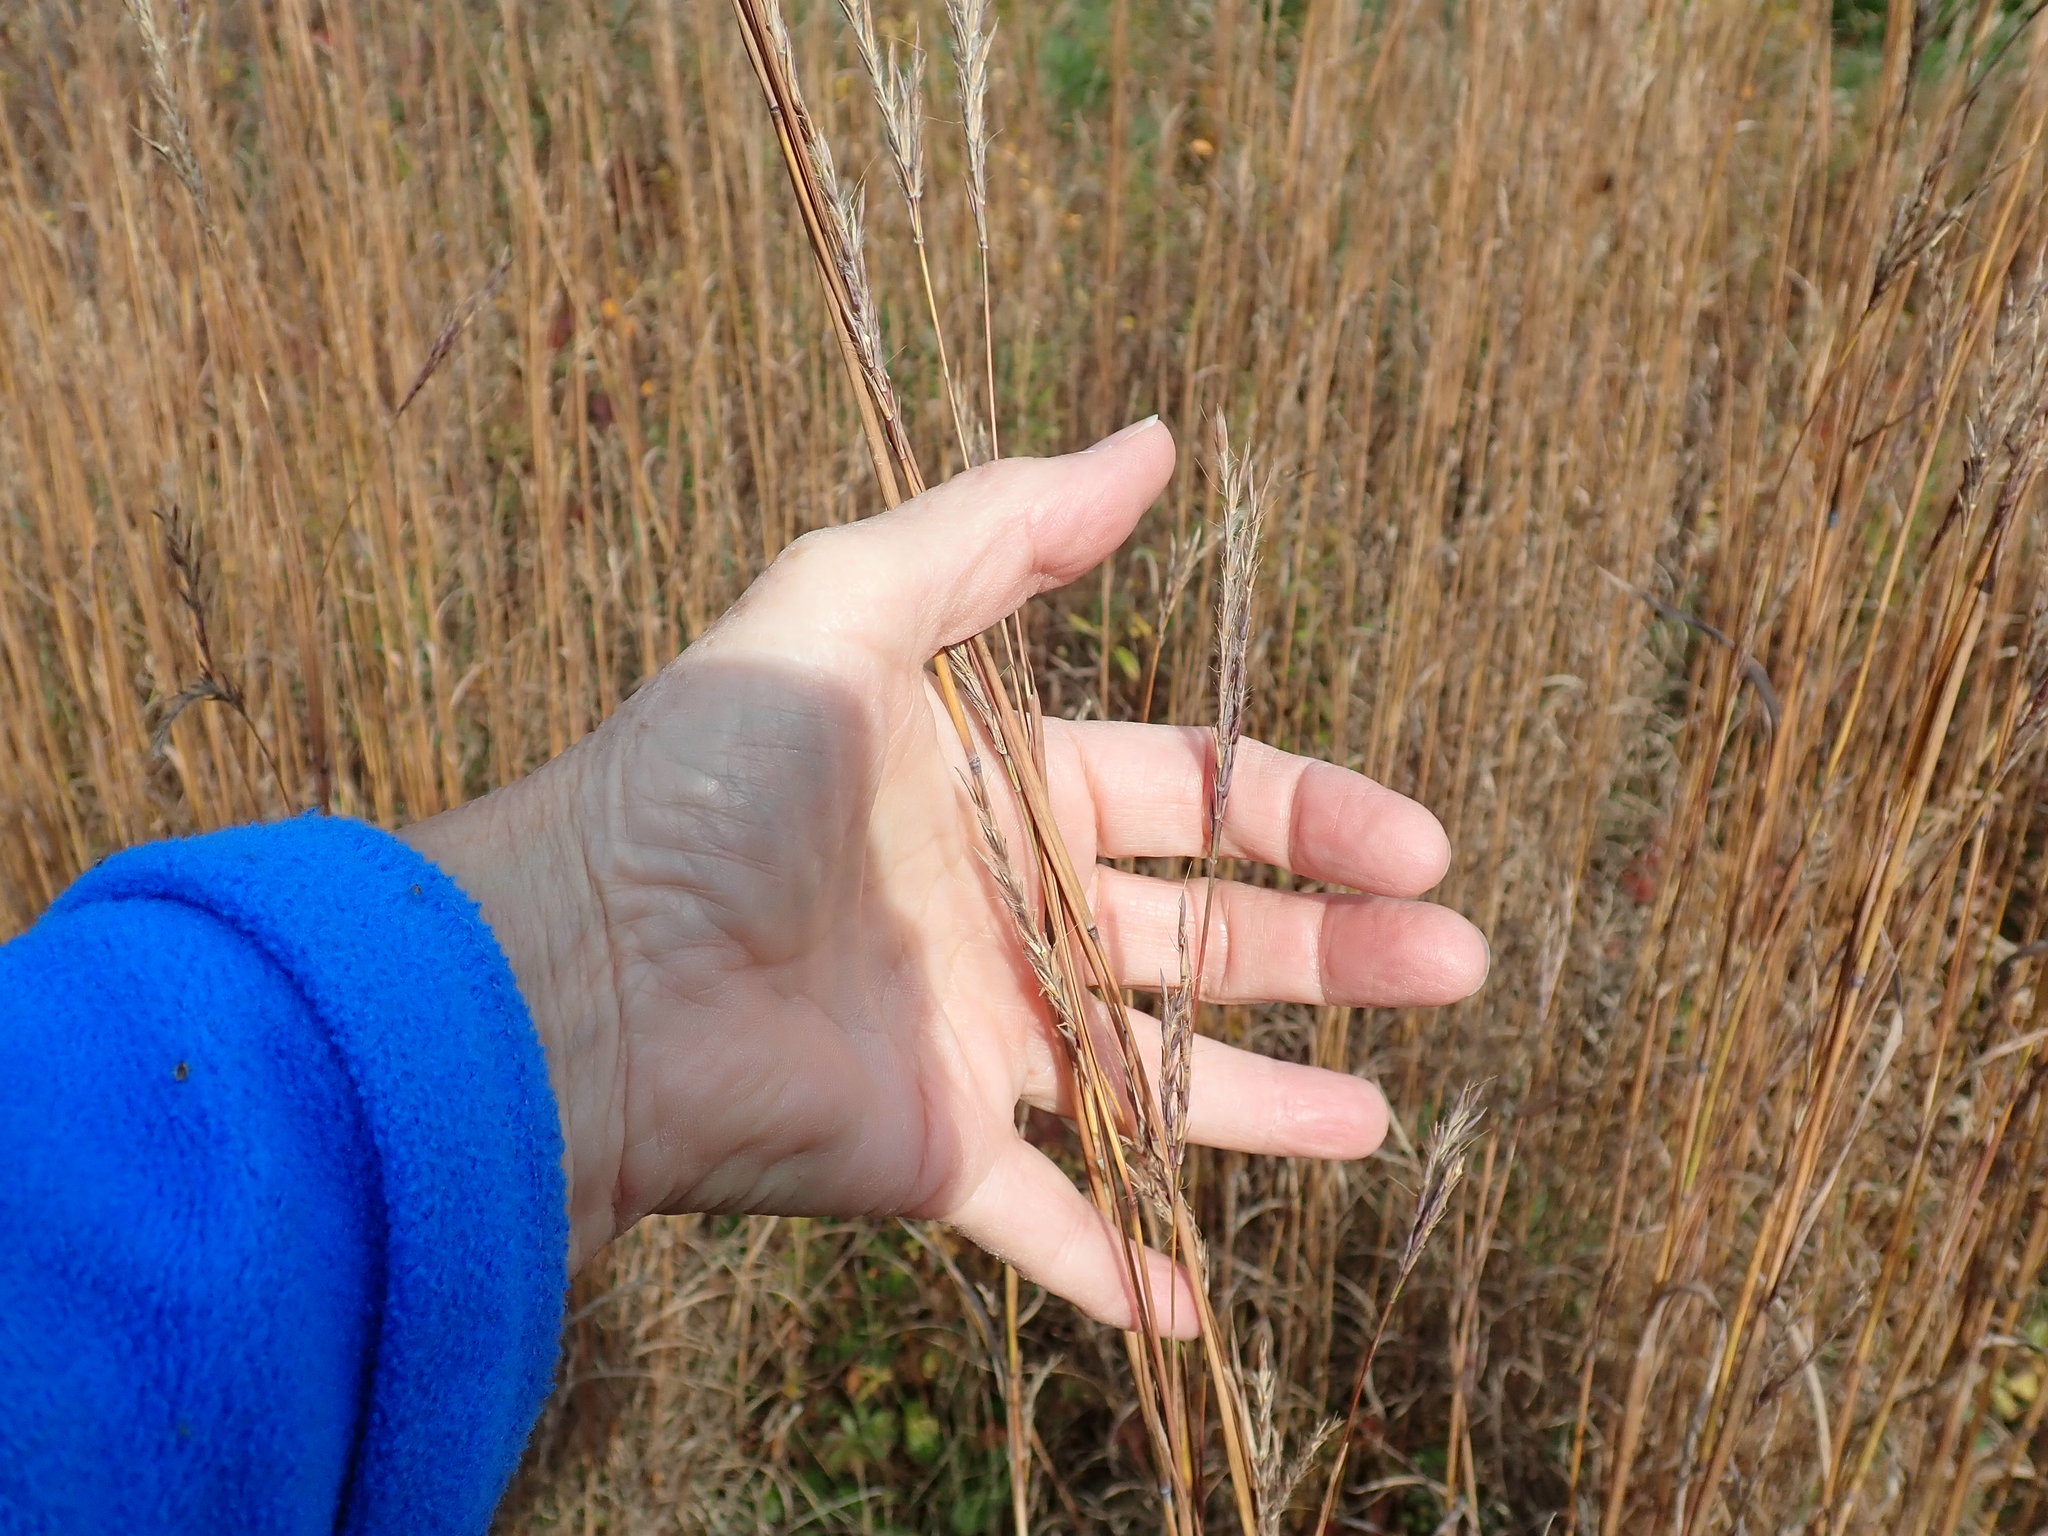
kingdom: Plantae
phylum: Tracheophyta
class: Liliopsida
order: Poales
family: Poaceae
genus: Andropogon
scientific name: Andropogon gerardi
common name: Big bluestem
